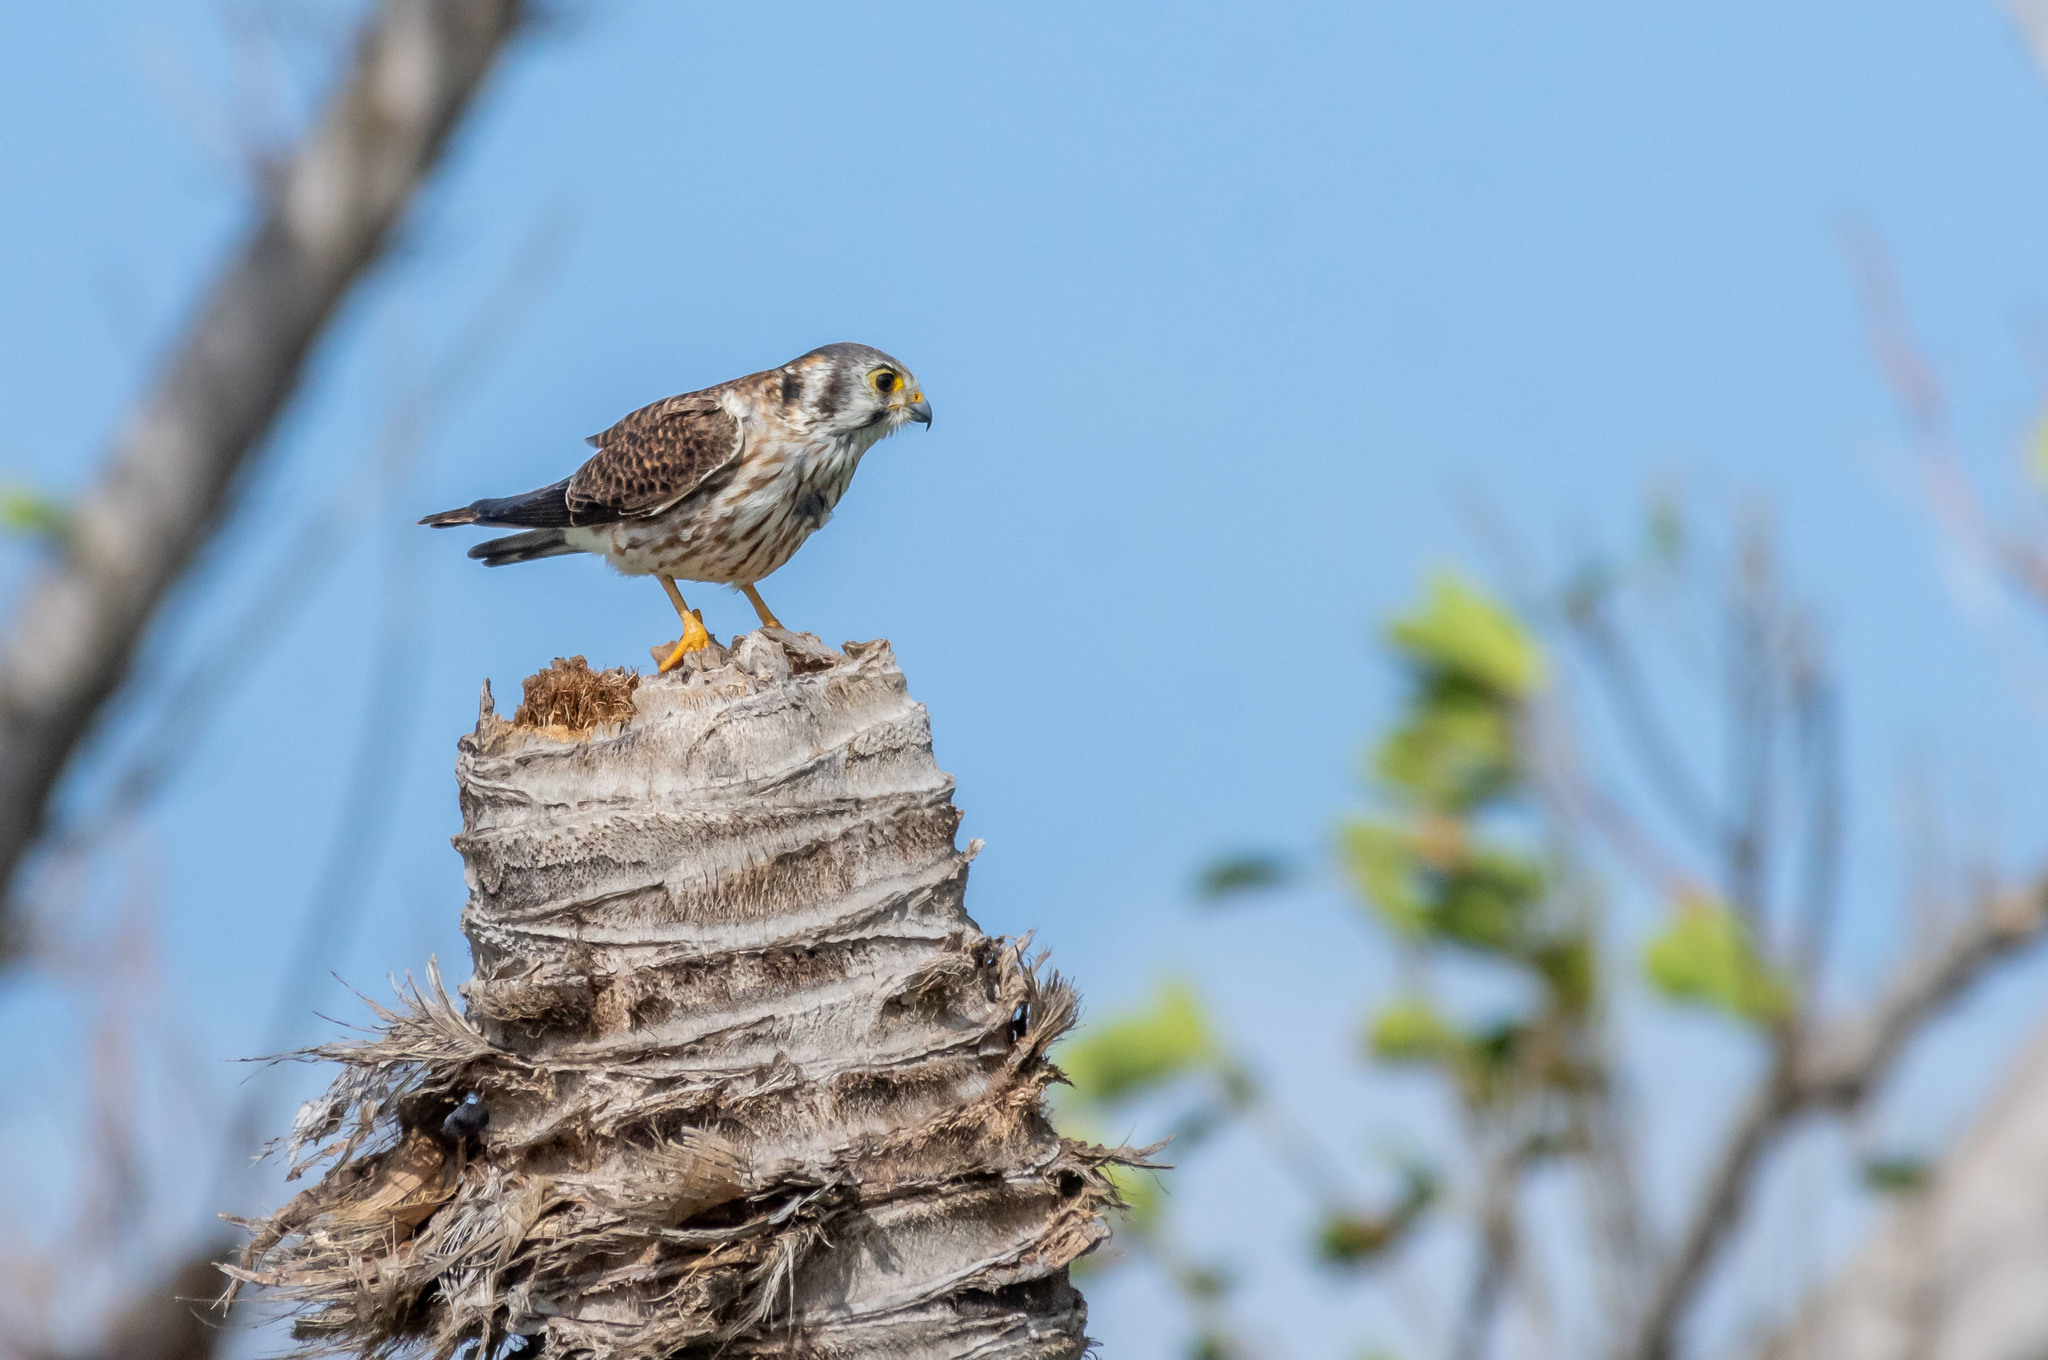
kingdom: Animalia
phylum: Chordata
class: Aves
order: Falconiformes
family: Falconidae
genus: Falco
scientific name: Falco sparverius
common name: American kestrel
